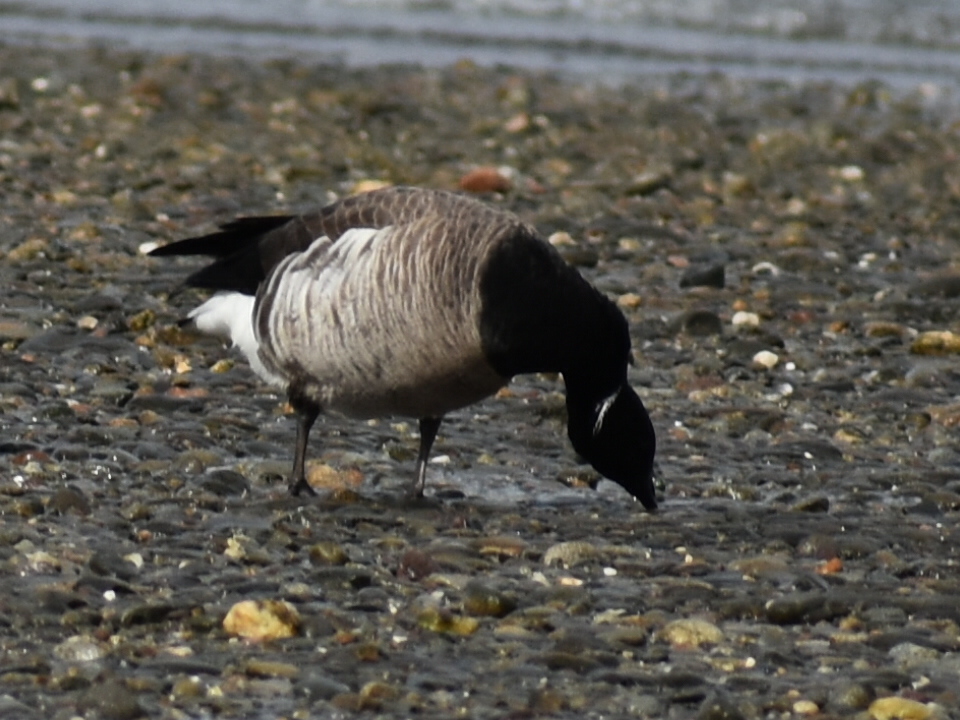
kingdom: Animalia
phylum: Chordata
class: Aves
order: Anseriformes
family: Anatidae
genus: Branta
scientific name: Branta bernicla
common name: Brant goose
